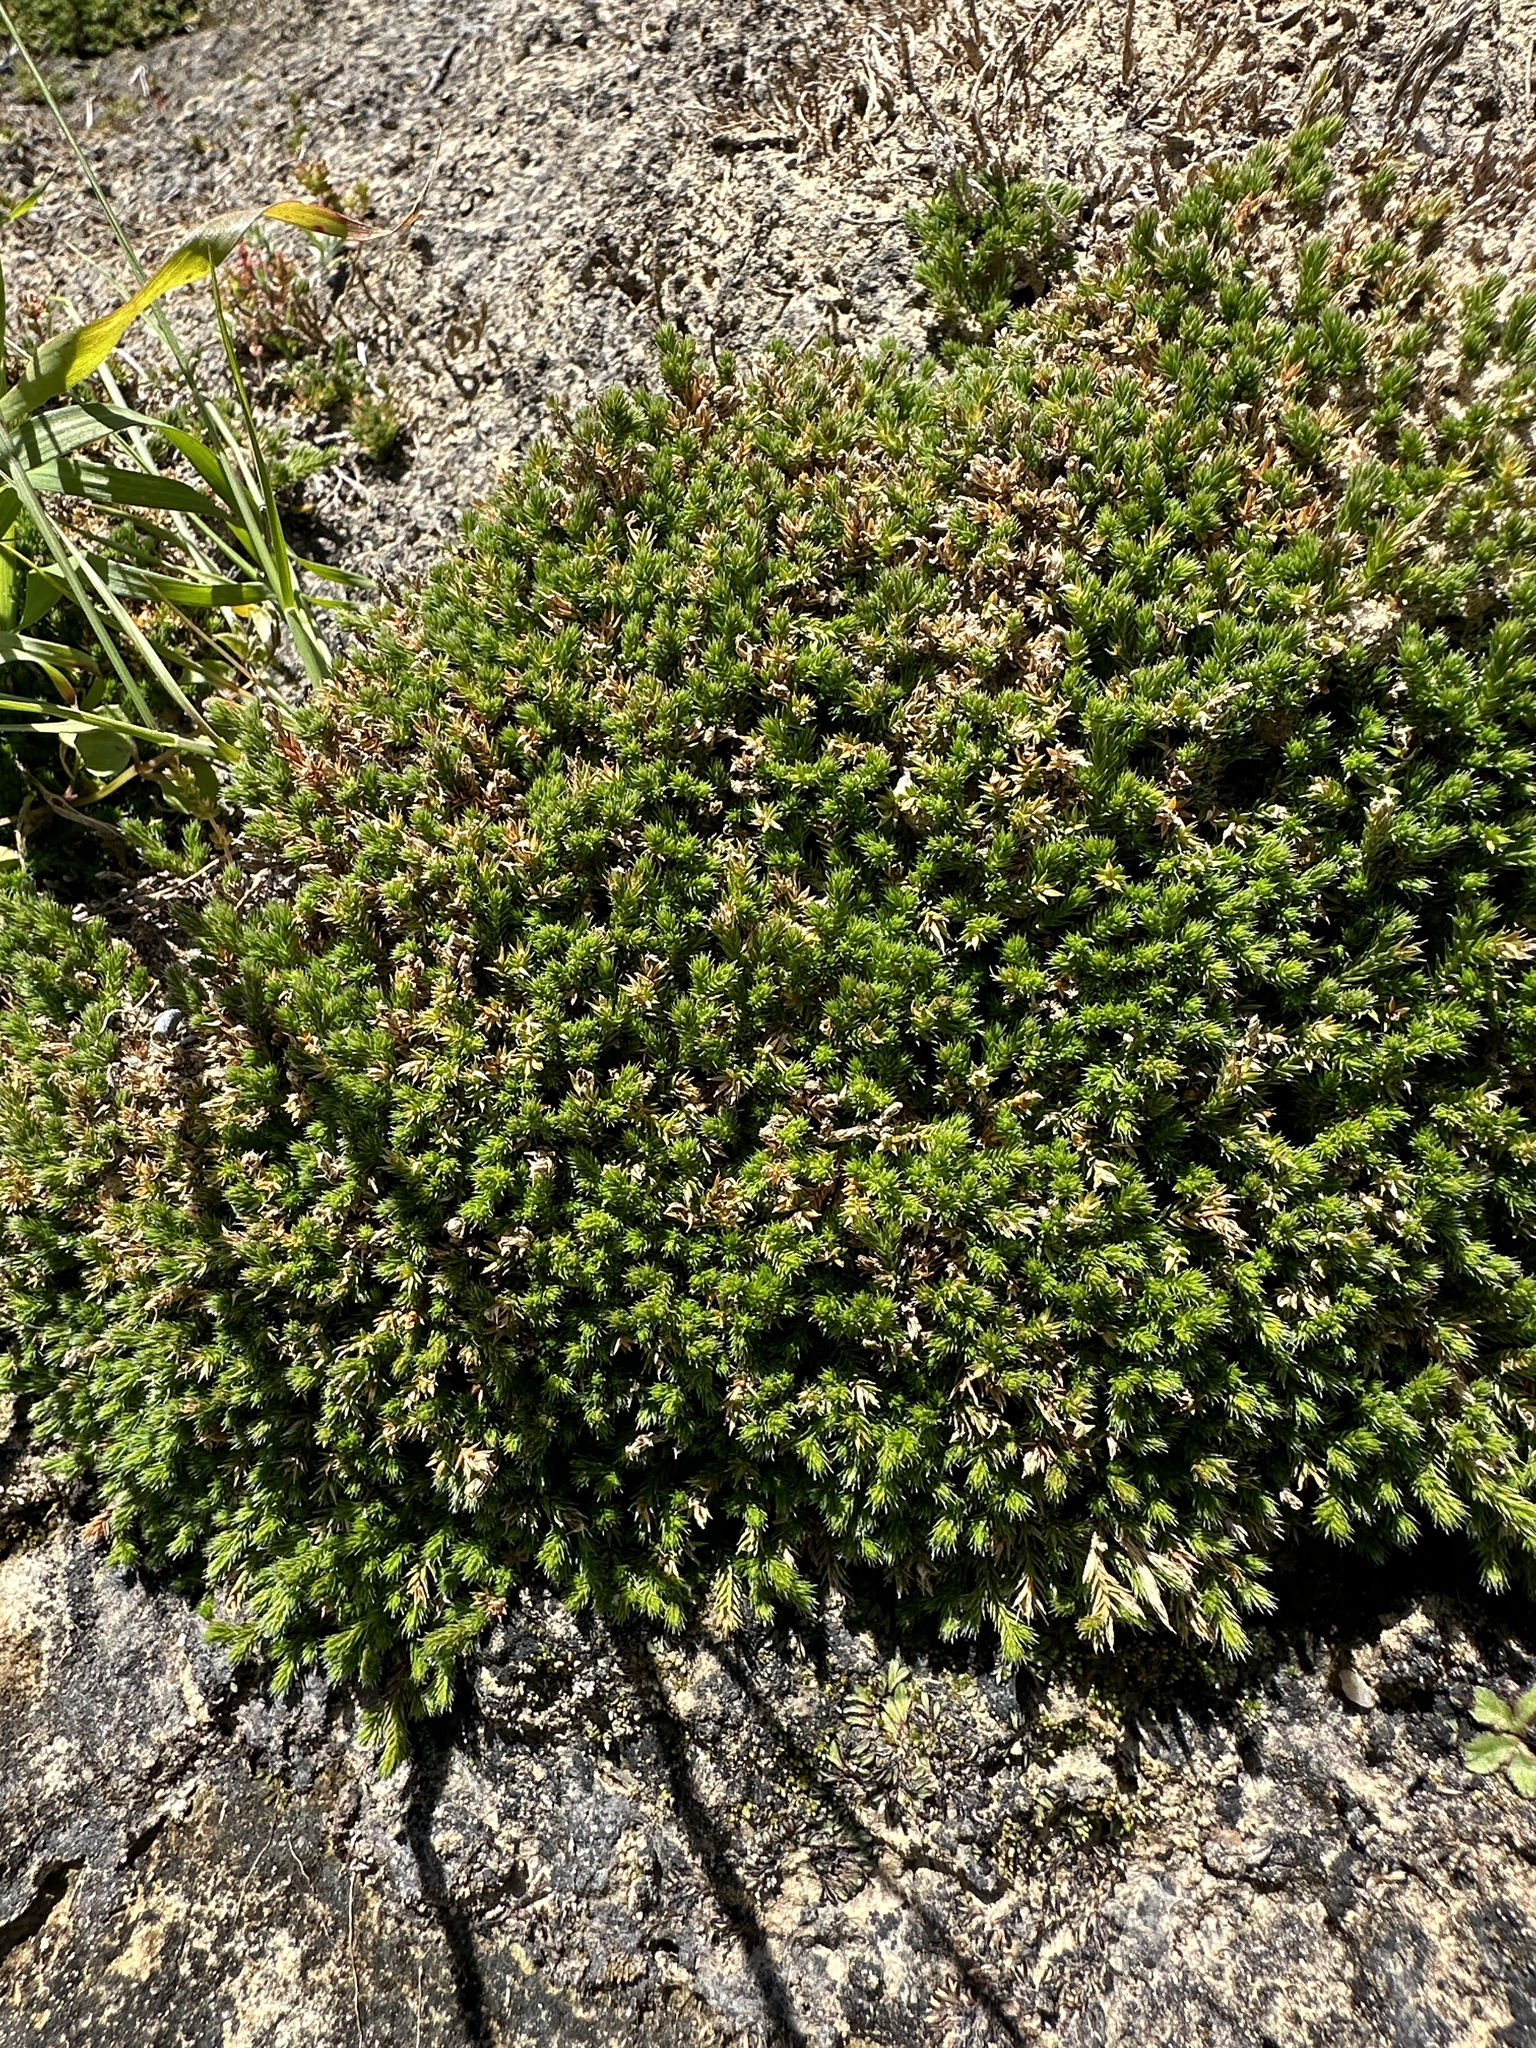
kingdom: Plantae
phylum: Tracheophyta
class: Lycopodiopsida
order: Selaginellales
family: Selaginellaceae
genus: Selaginella
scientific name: Selaginella bigelovii
